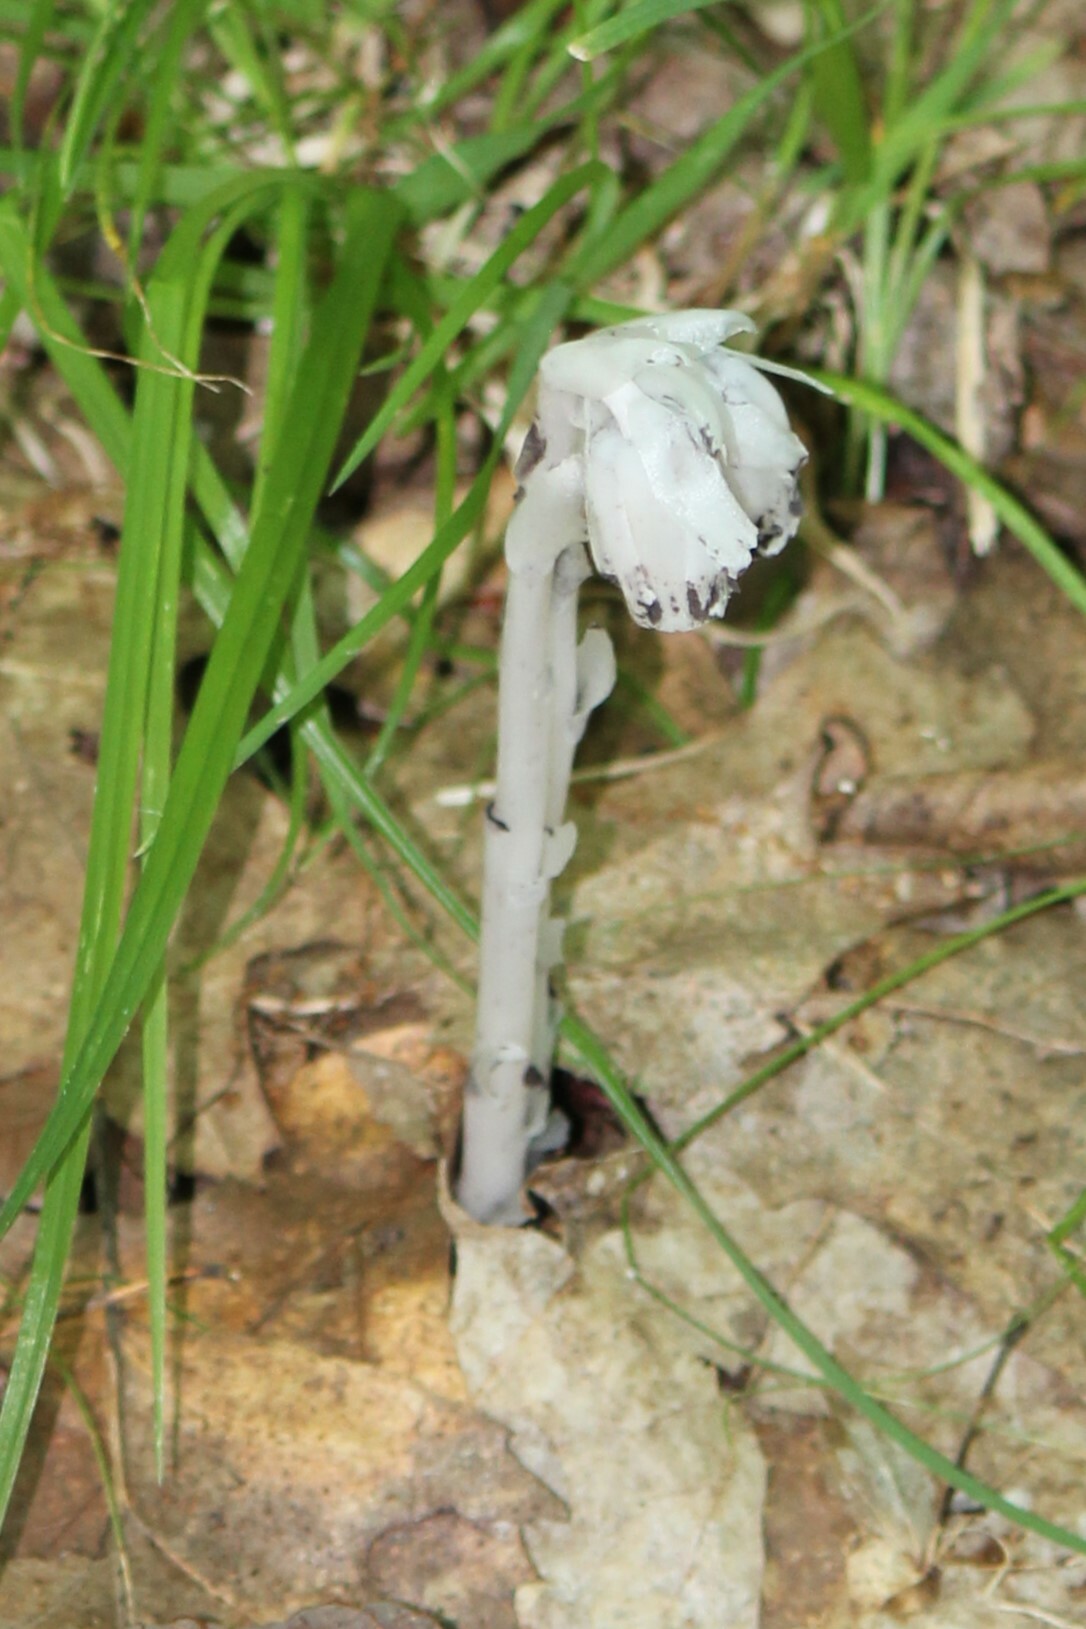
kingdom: Plantae
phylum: Tracheophyta
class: Magnoliopsida
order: Ericales
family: Ericaceae
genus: Monotropa
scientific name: Monotropa uniflora
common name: Convulsion root
